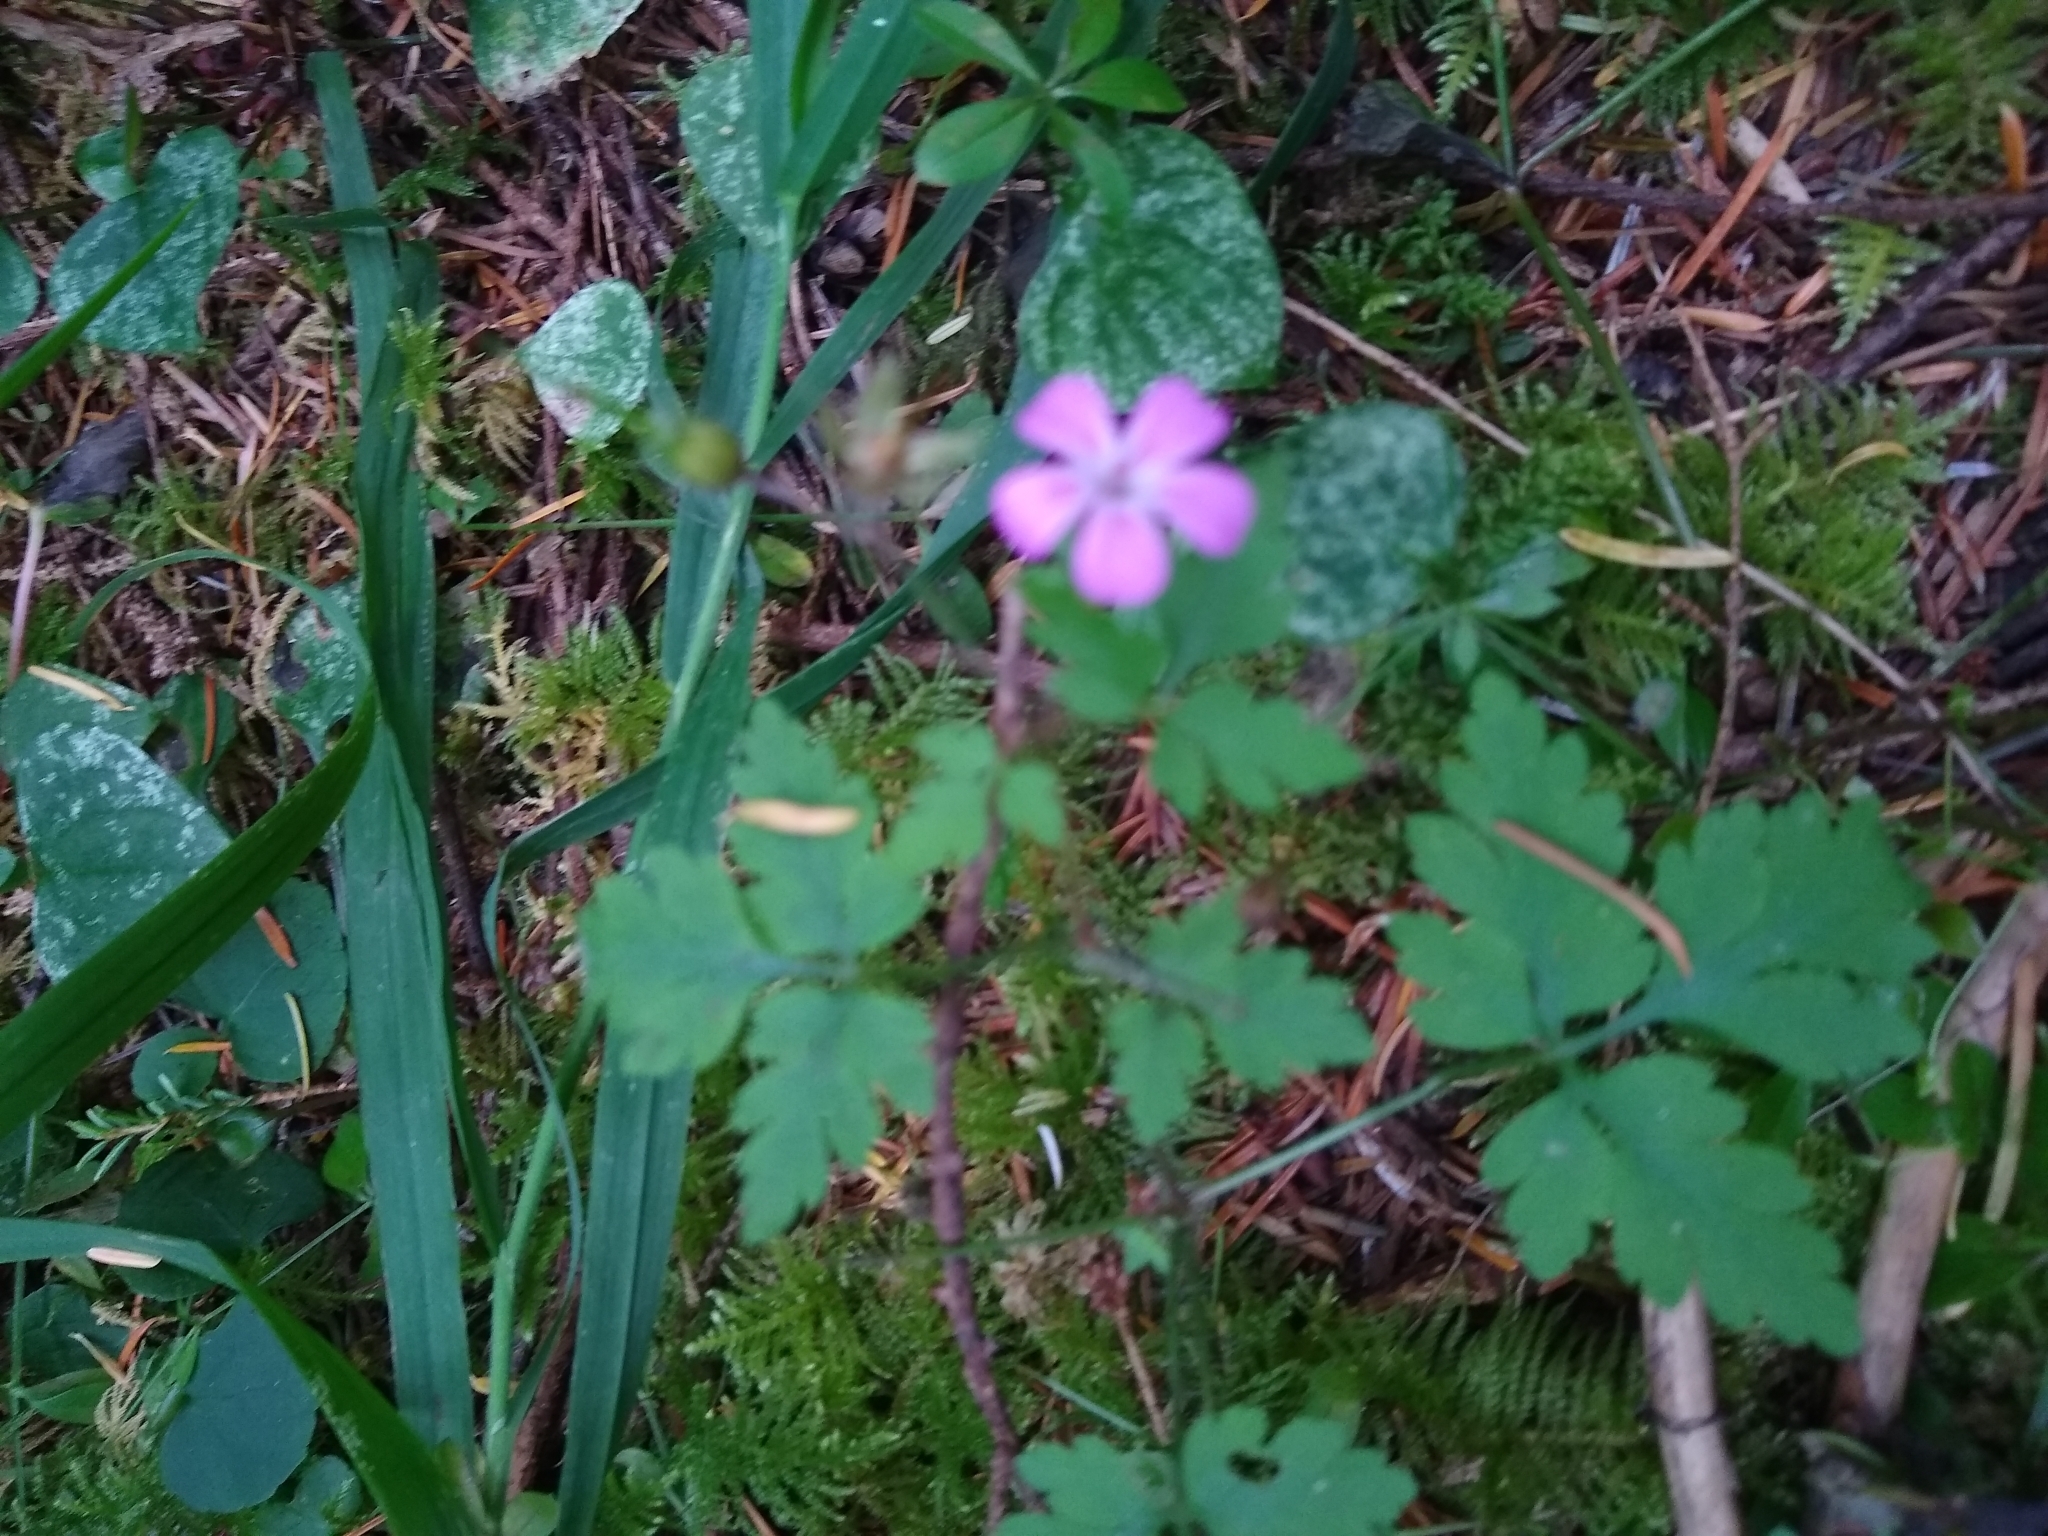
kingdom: Plantae
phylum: Tracheophyta
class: Magnoliopsida
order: Geraniales
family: Geraniaceae
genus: Geranium
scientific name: Geranium robertianum
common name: Herb-robert
